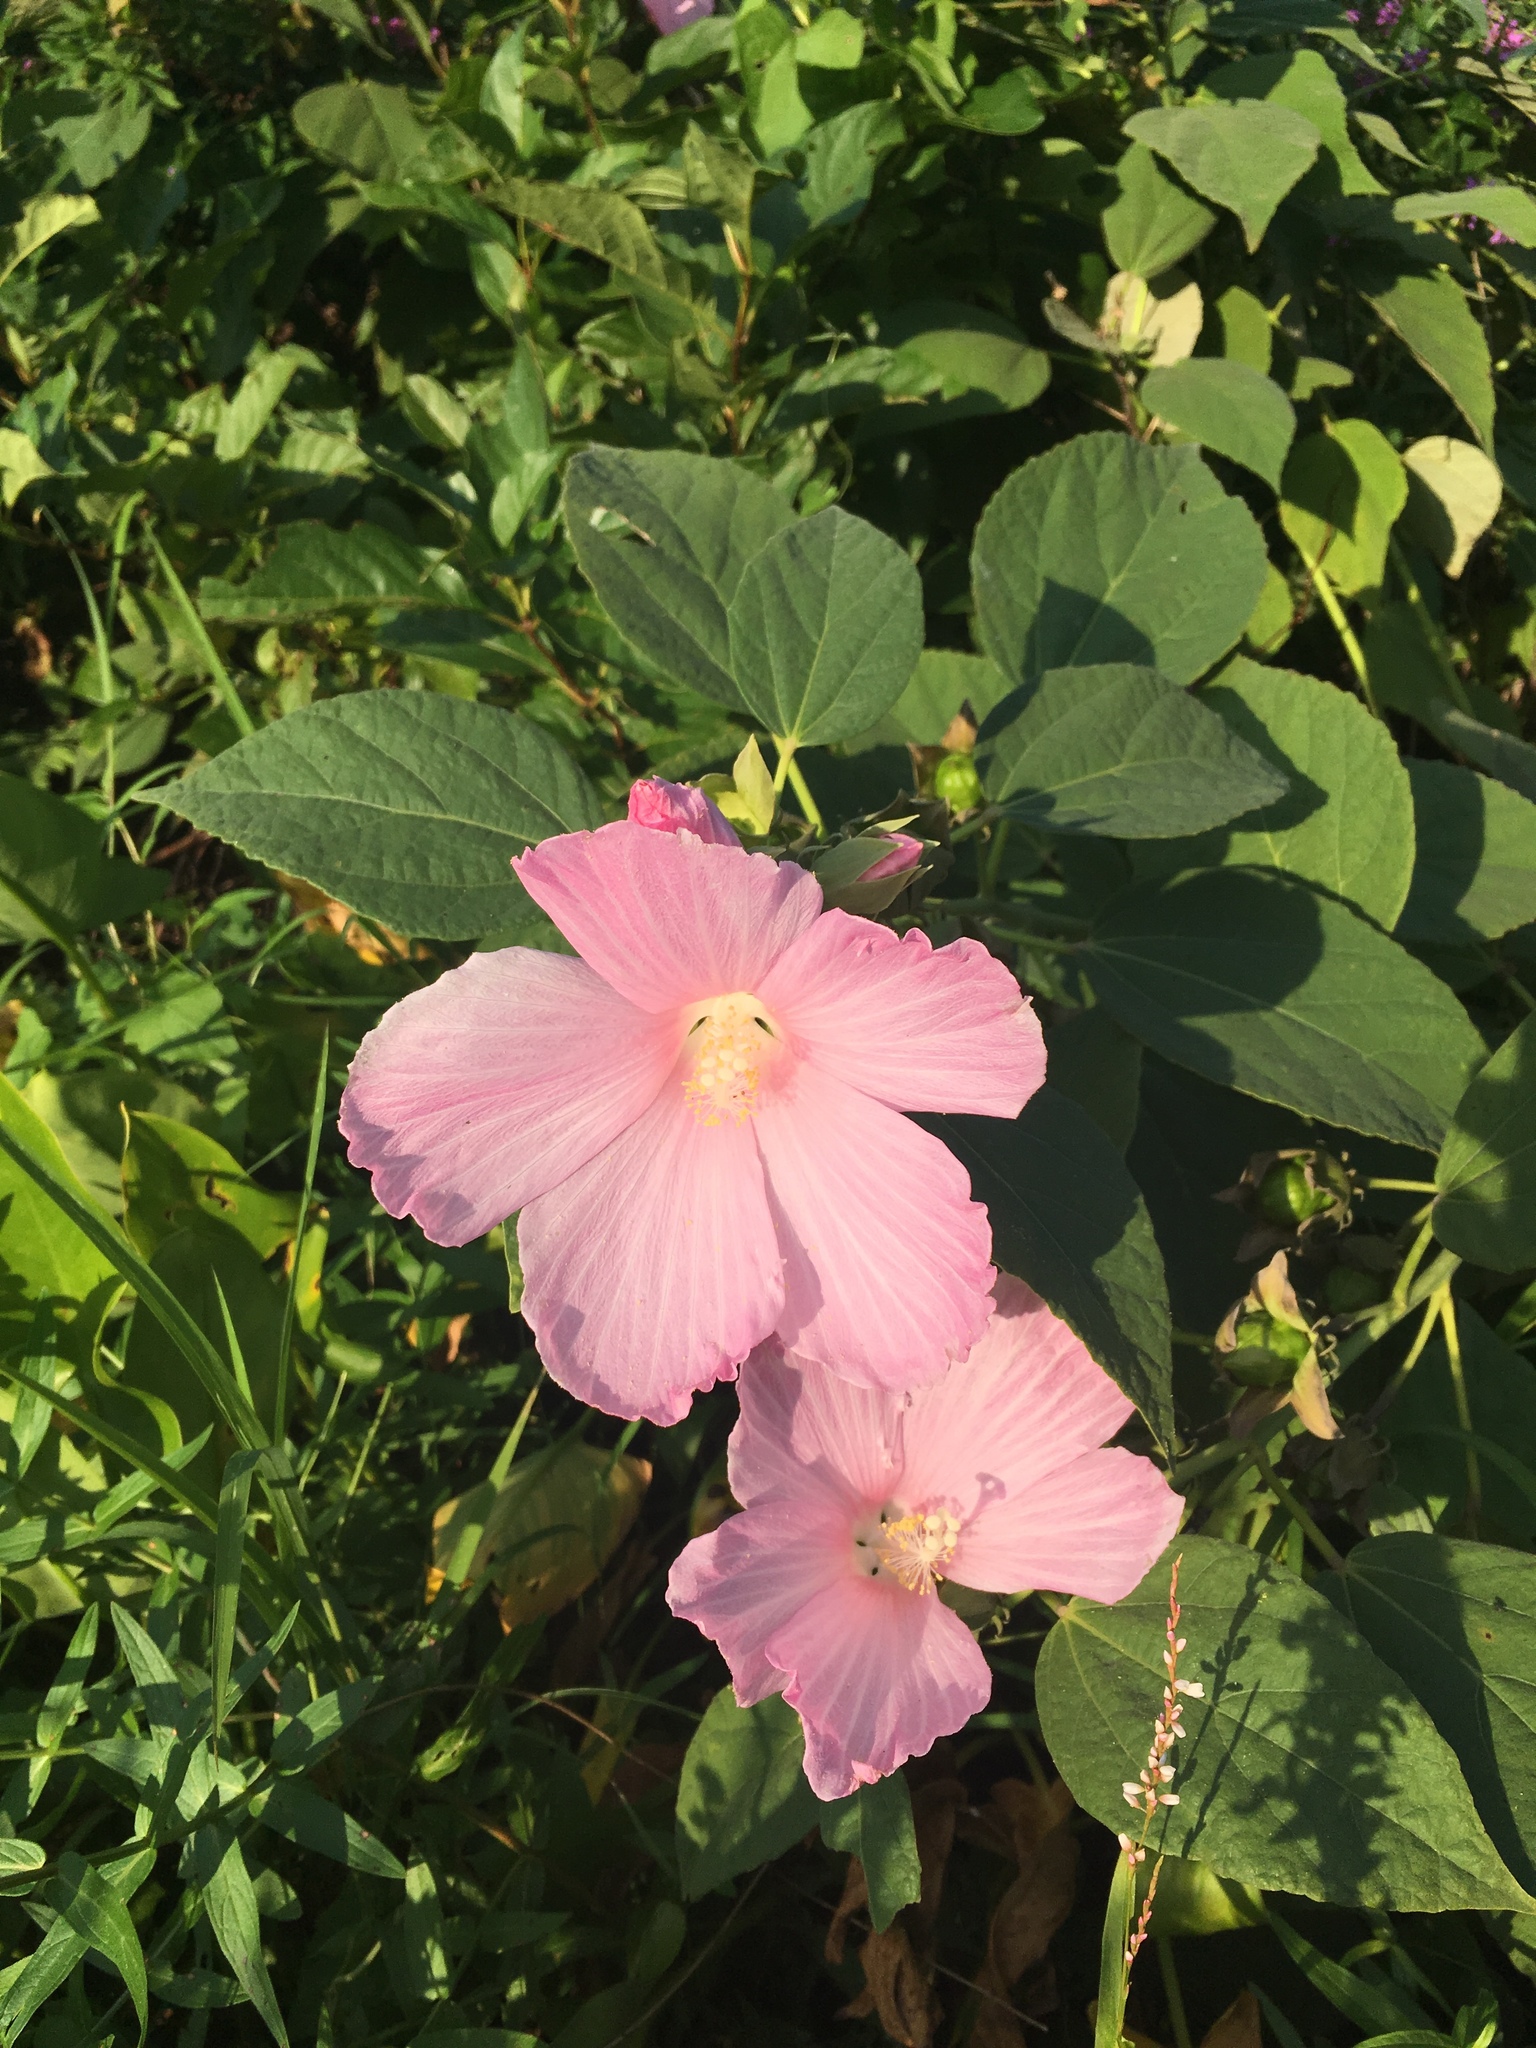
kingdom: Plantae
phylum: Tracheophyta
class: Magnoliopsida
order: Malvales
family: Malvaceae
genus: Hibiscus
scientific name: Hibiscus moscheutos
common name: Common rose-mallow
